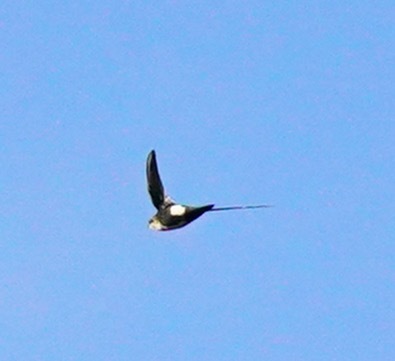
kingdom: Animalia
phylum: Chordata
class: Aves
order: Apodiformes
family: Apodidae
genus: Aeronautes
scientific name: Aeronautes saxatalis
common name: White-throated swift
